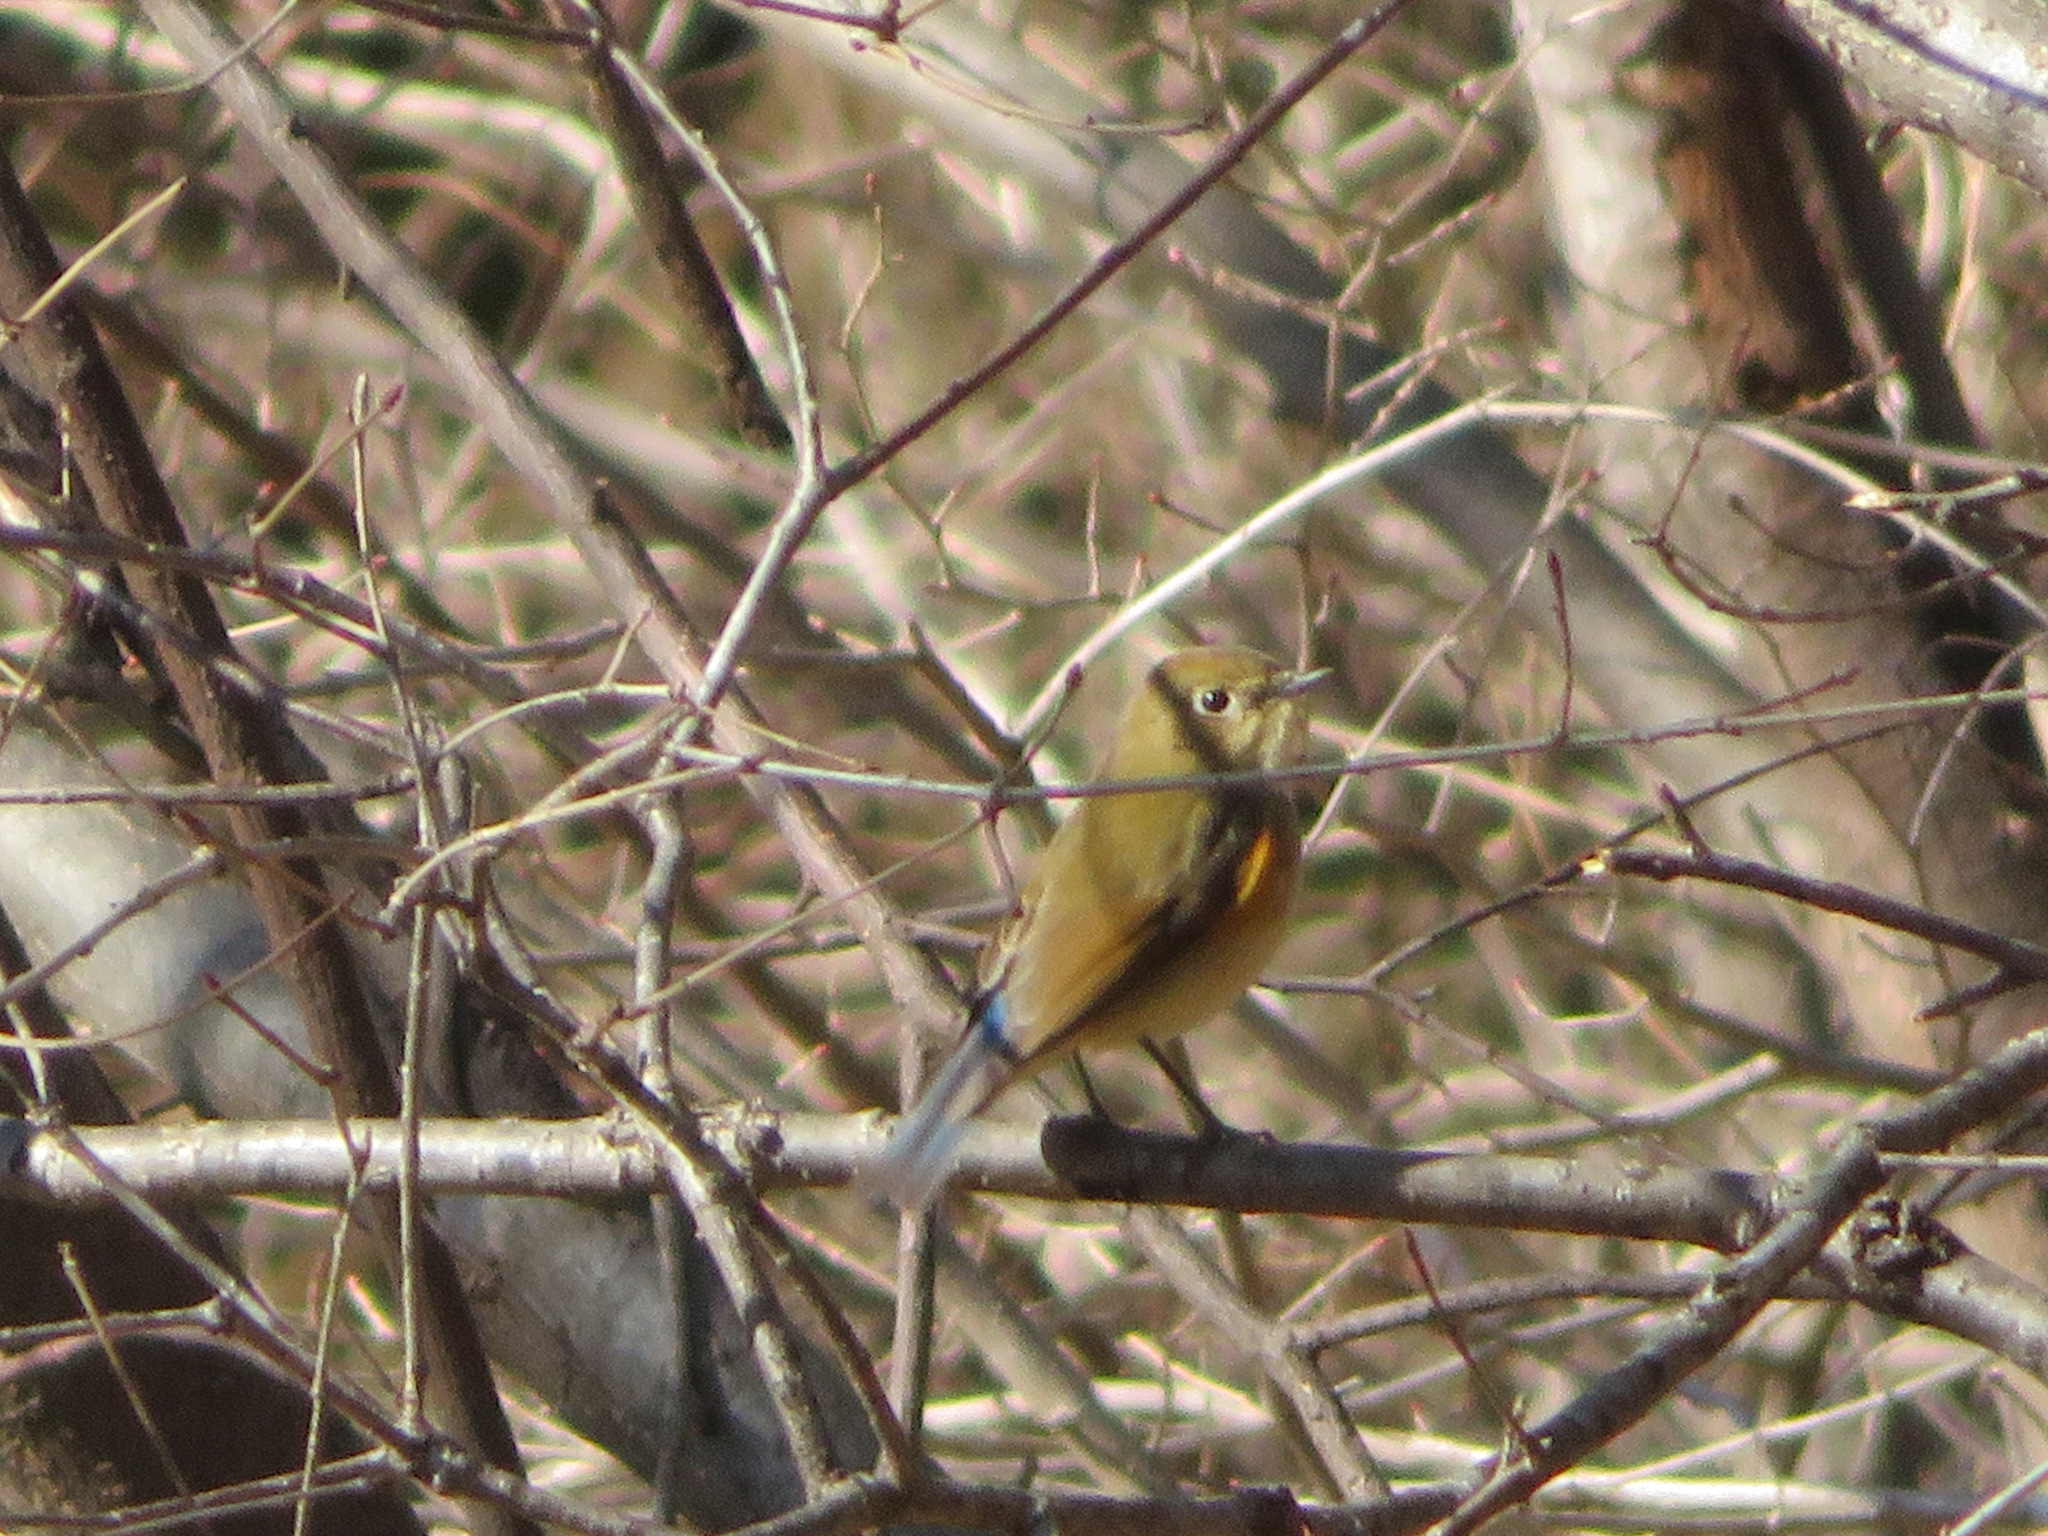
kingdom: Animalia
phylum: Chordata
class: Aves
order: Passeriformes
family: Muscicapidae
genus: Tarsiger
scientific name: Tarsiger cyanurus
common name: Red-flanked bluetail
